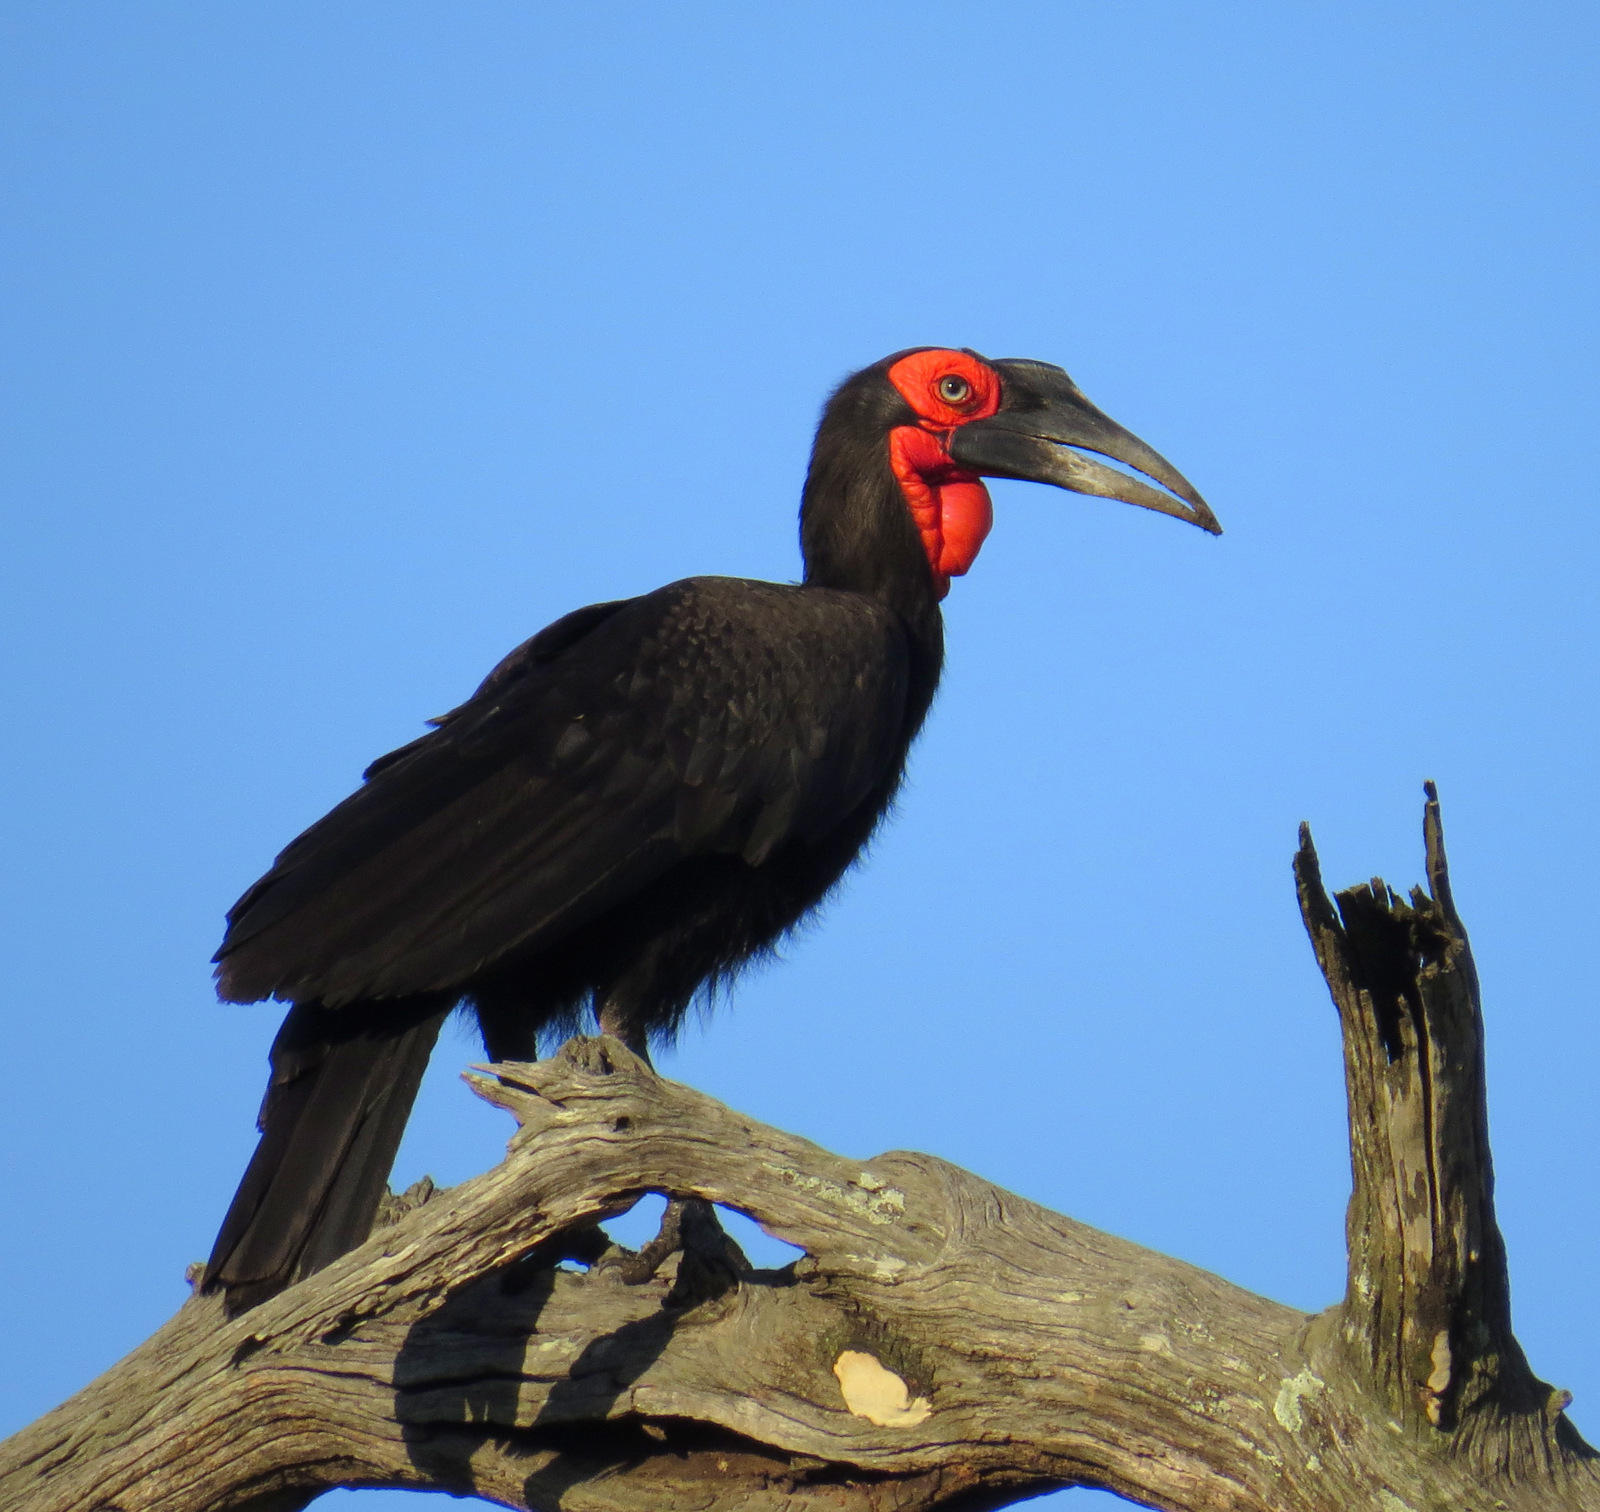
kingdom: Animalia
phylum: Chordata
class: Aves
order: Bucerotiformes
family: Bucorvidae
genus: Bucorvus
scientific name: Bucorvus leadbeateri
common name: Southern ground-hornbill
